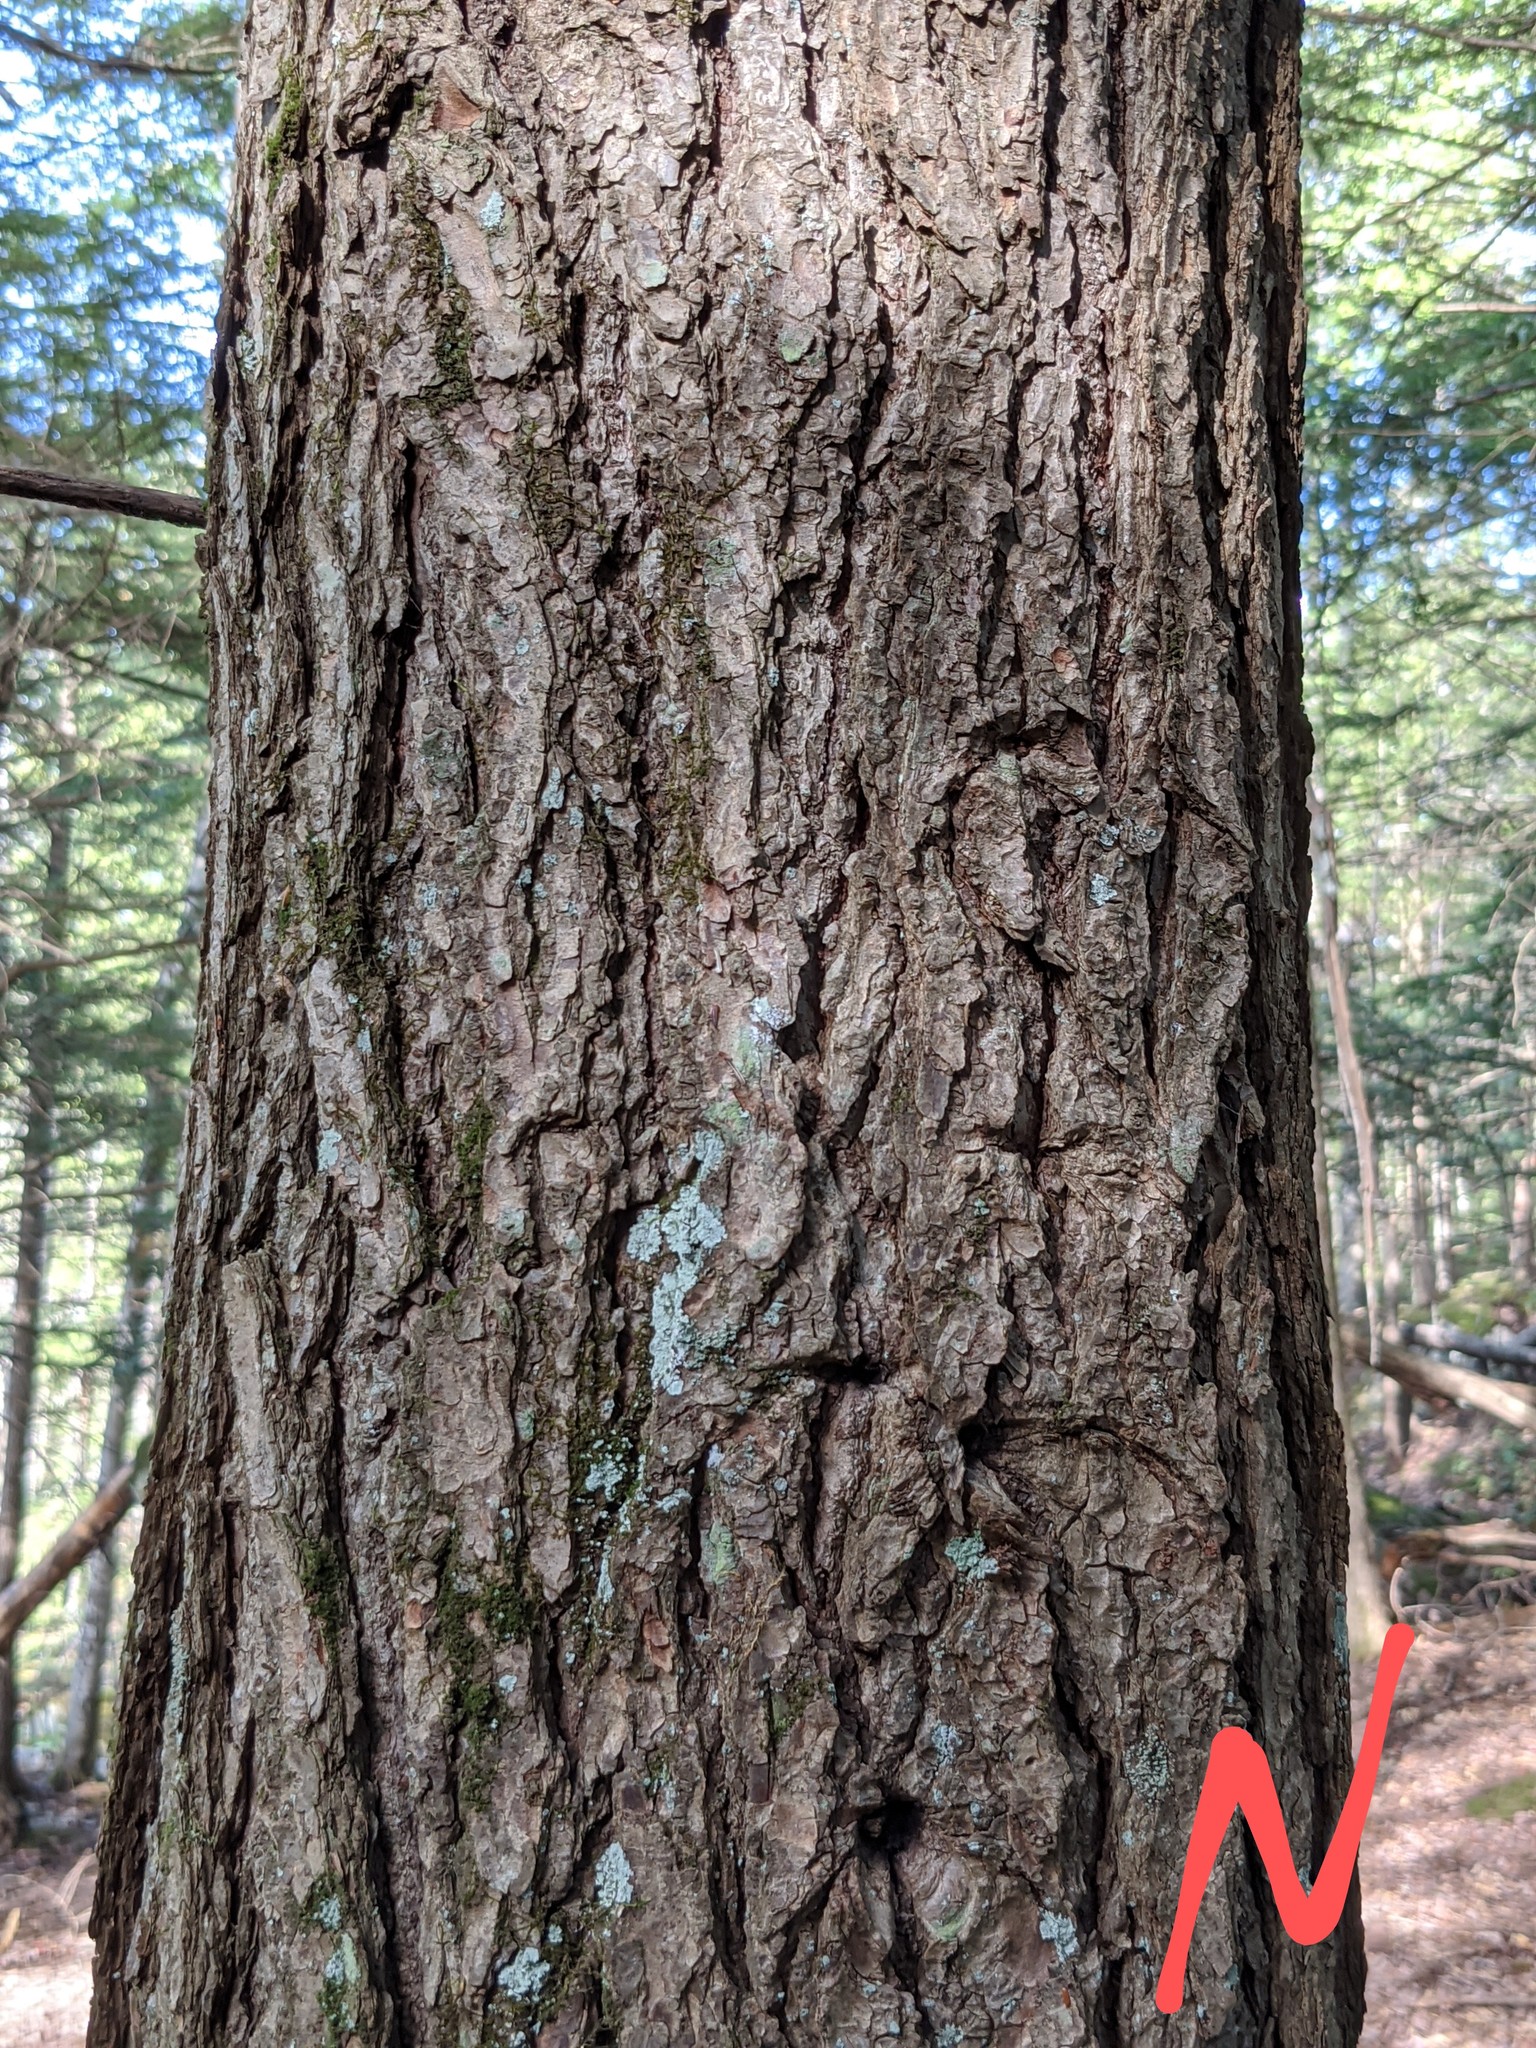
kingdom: Plantae
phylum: Tracheophyta
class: Pinopsida
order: Pinales
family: Pinaceae
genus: Tsuga
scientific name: Tsuga canadensis
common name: Eastern hemlock
